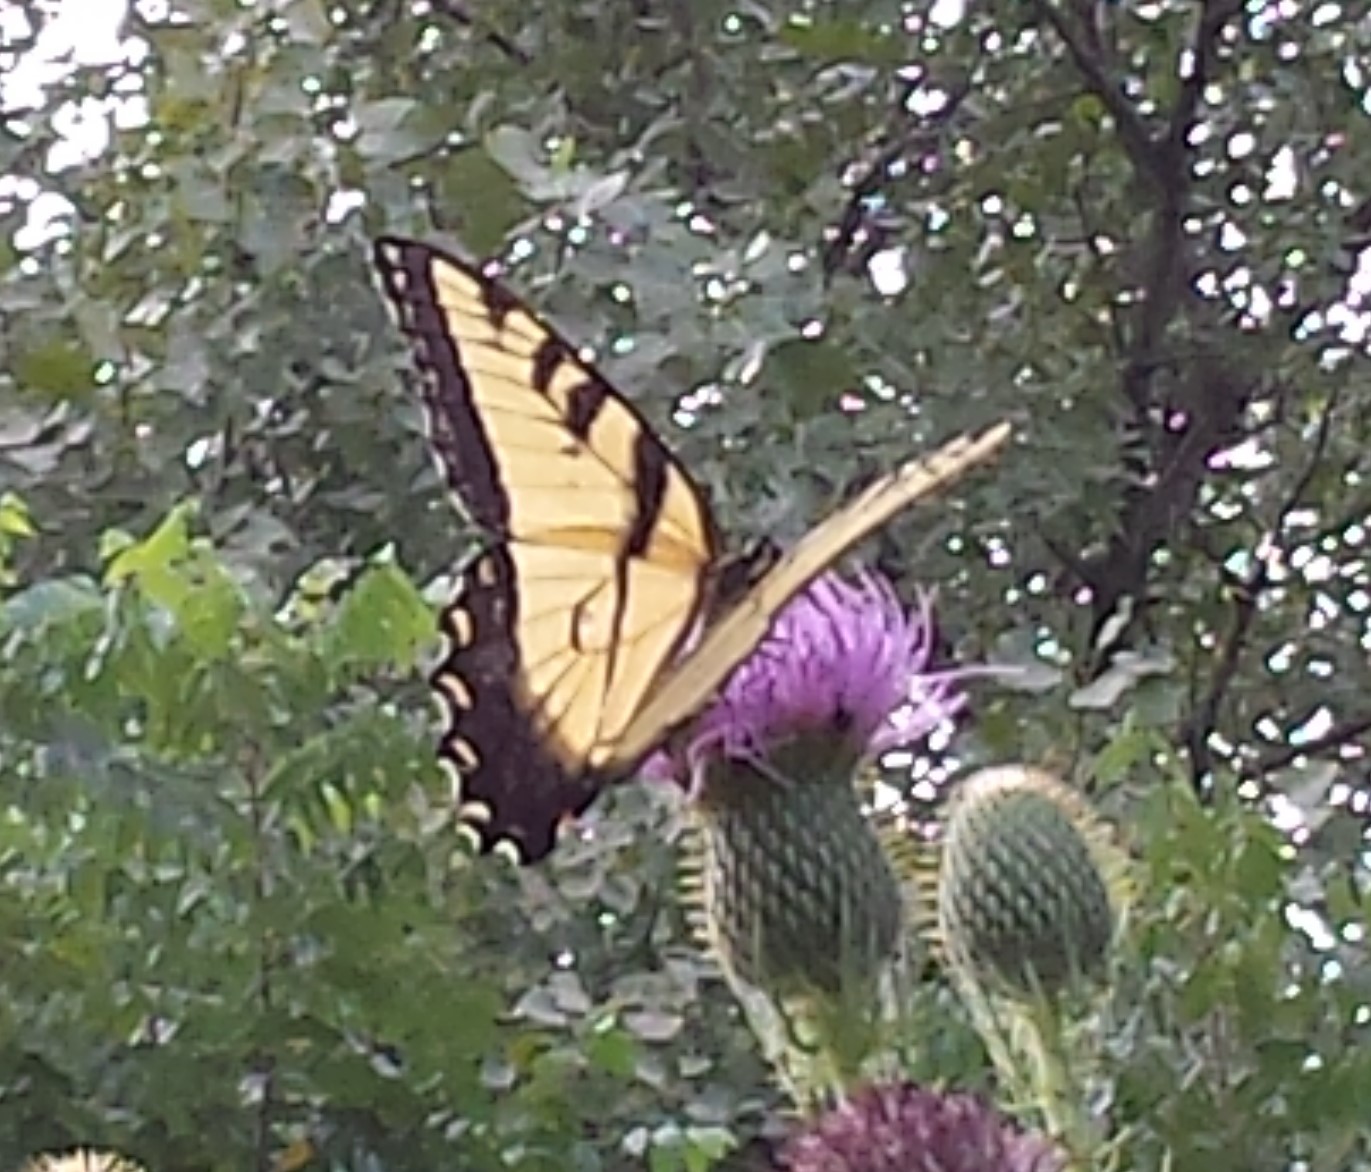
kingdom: Animalia
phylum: Arthropoda
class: Insecta
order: Lepidoptera
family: Papilionidae
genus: Papilio
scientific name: Papilio glaucus
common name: Tiger swallowtail
